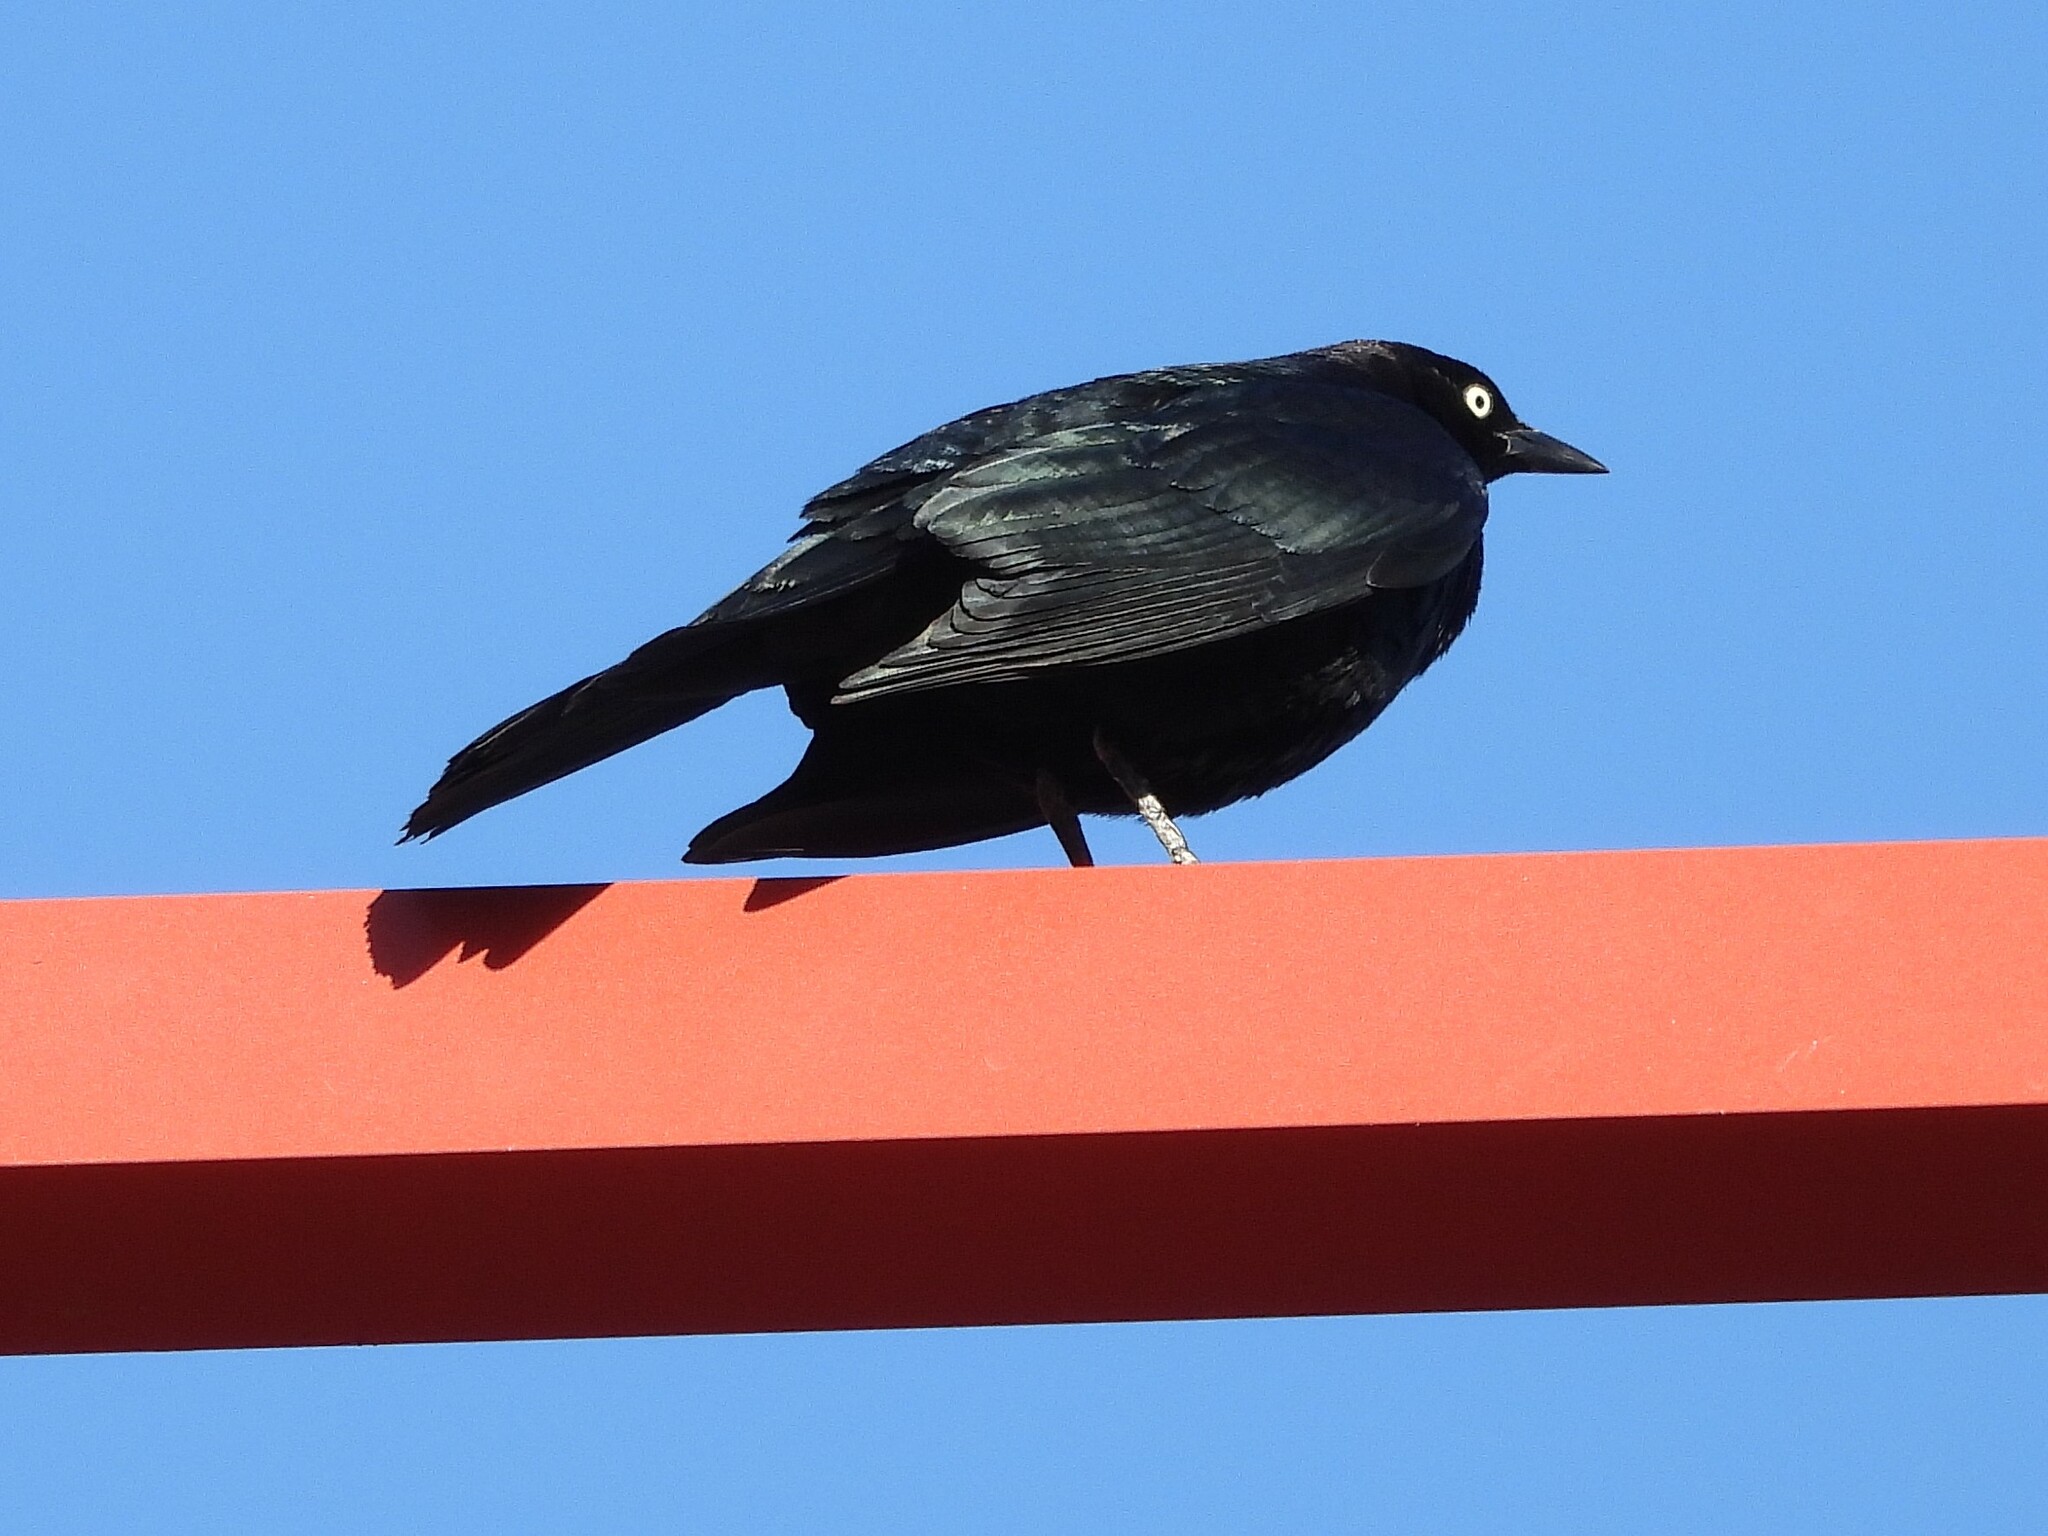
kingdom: Animalia
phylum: Chordata
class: Aves
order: Passeriformes
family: Icteridae
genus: Euphagus
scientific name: Euphagus cyanocephalus
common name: Brewer's blackbird
